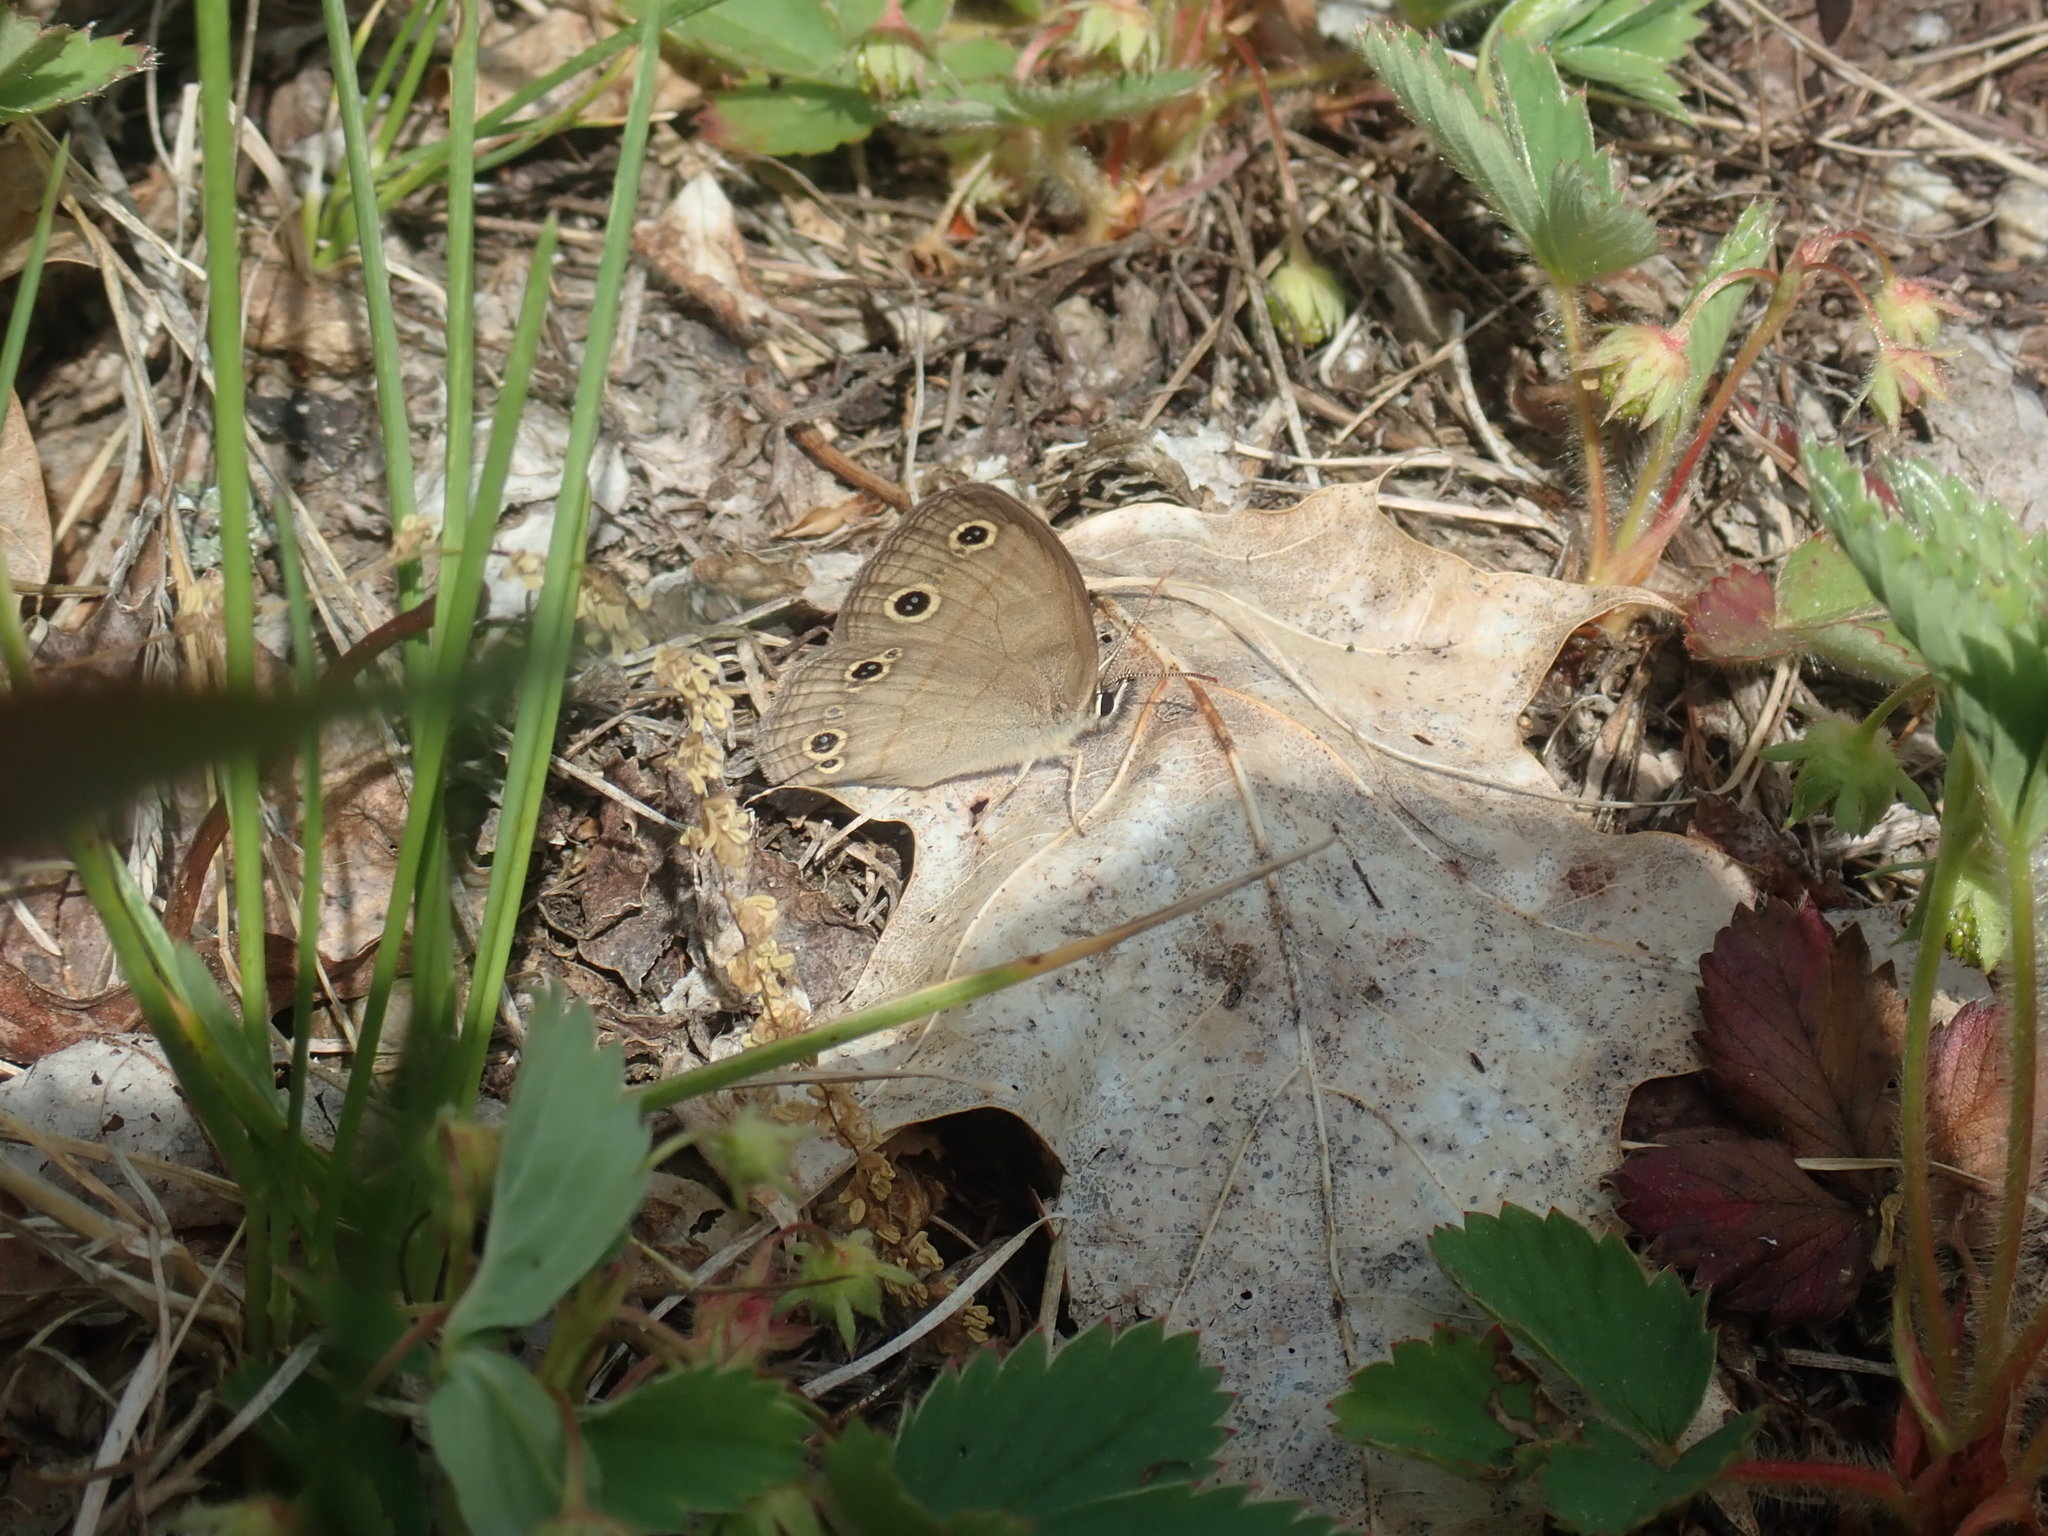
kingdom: Animalia
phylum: Arthropoda
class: Insecta
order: Lepidoptera
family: Nymphalidae
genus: Euptychia
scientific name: Euptychia cymela
